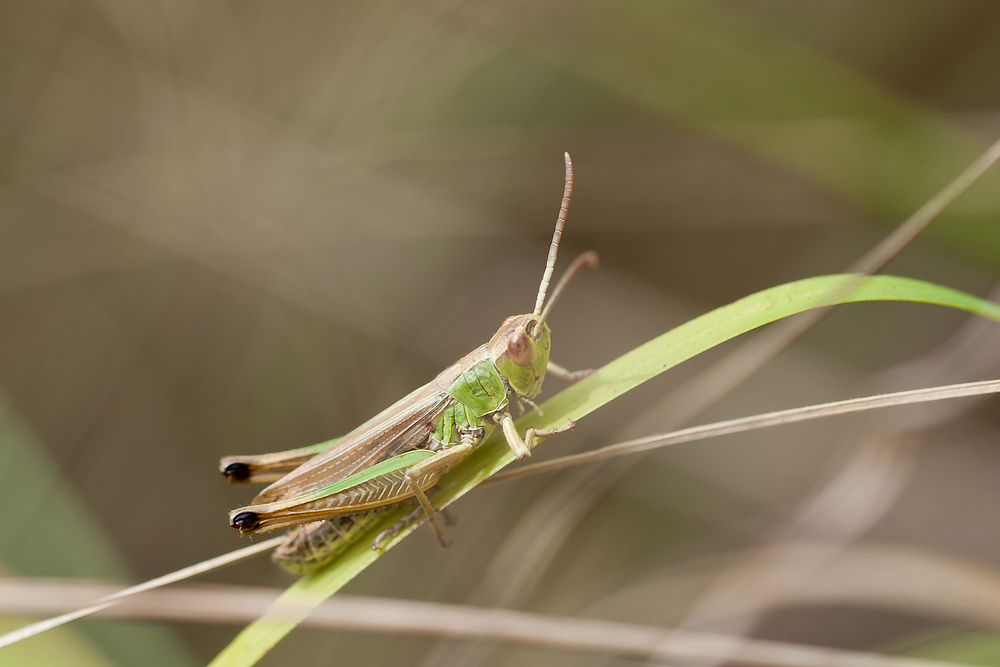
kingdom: Animalia
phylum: Arthropoda
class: Insecta
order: Orthoptera
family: Acrididae
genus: Pseudochorthippus
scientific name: Pseudochorthippus parallelus
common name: Meadow grasshopper
